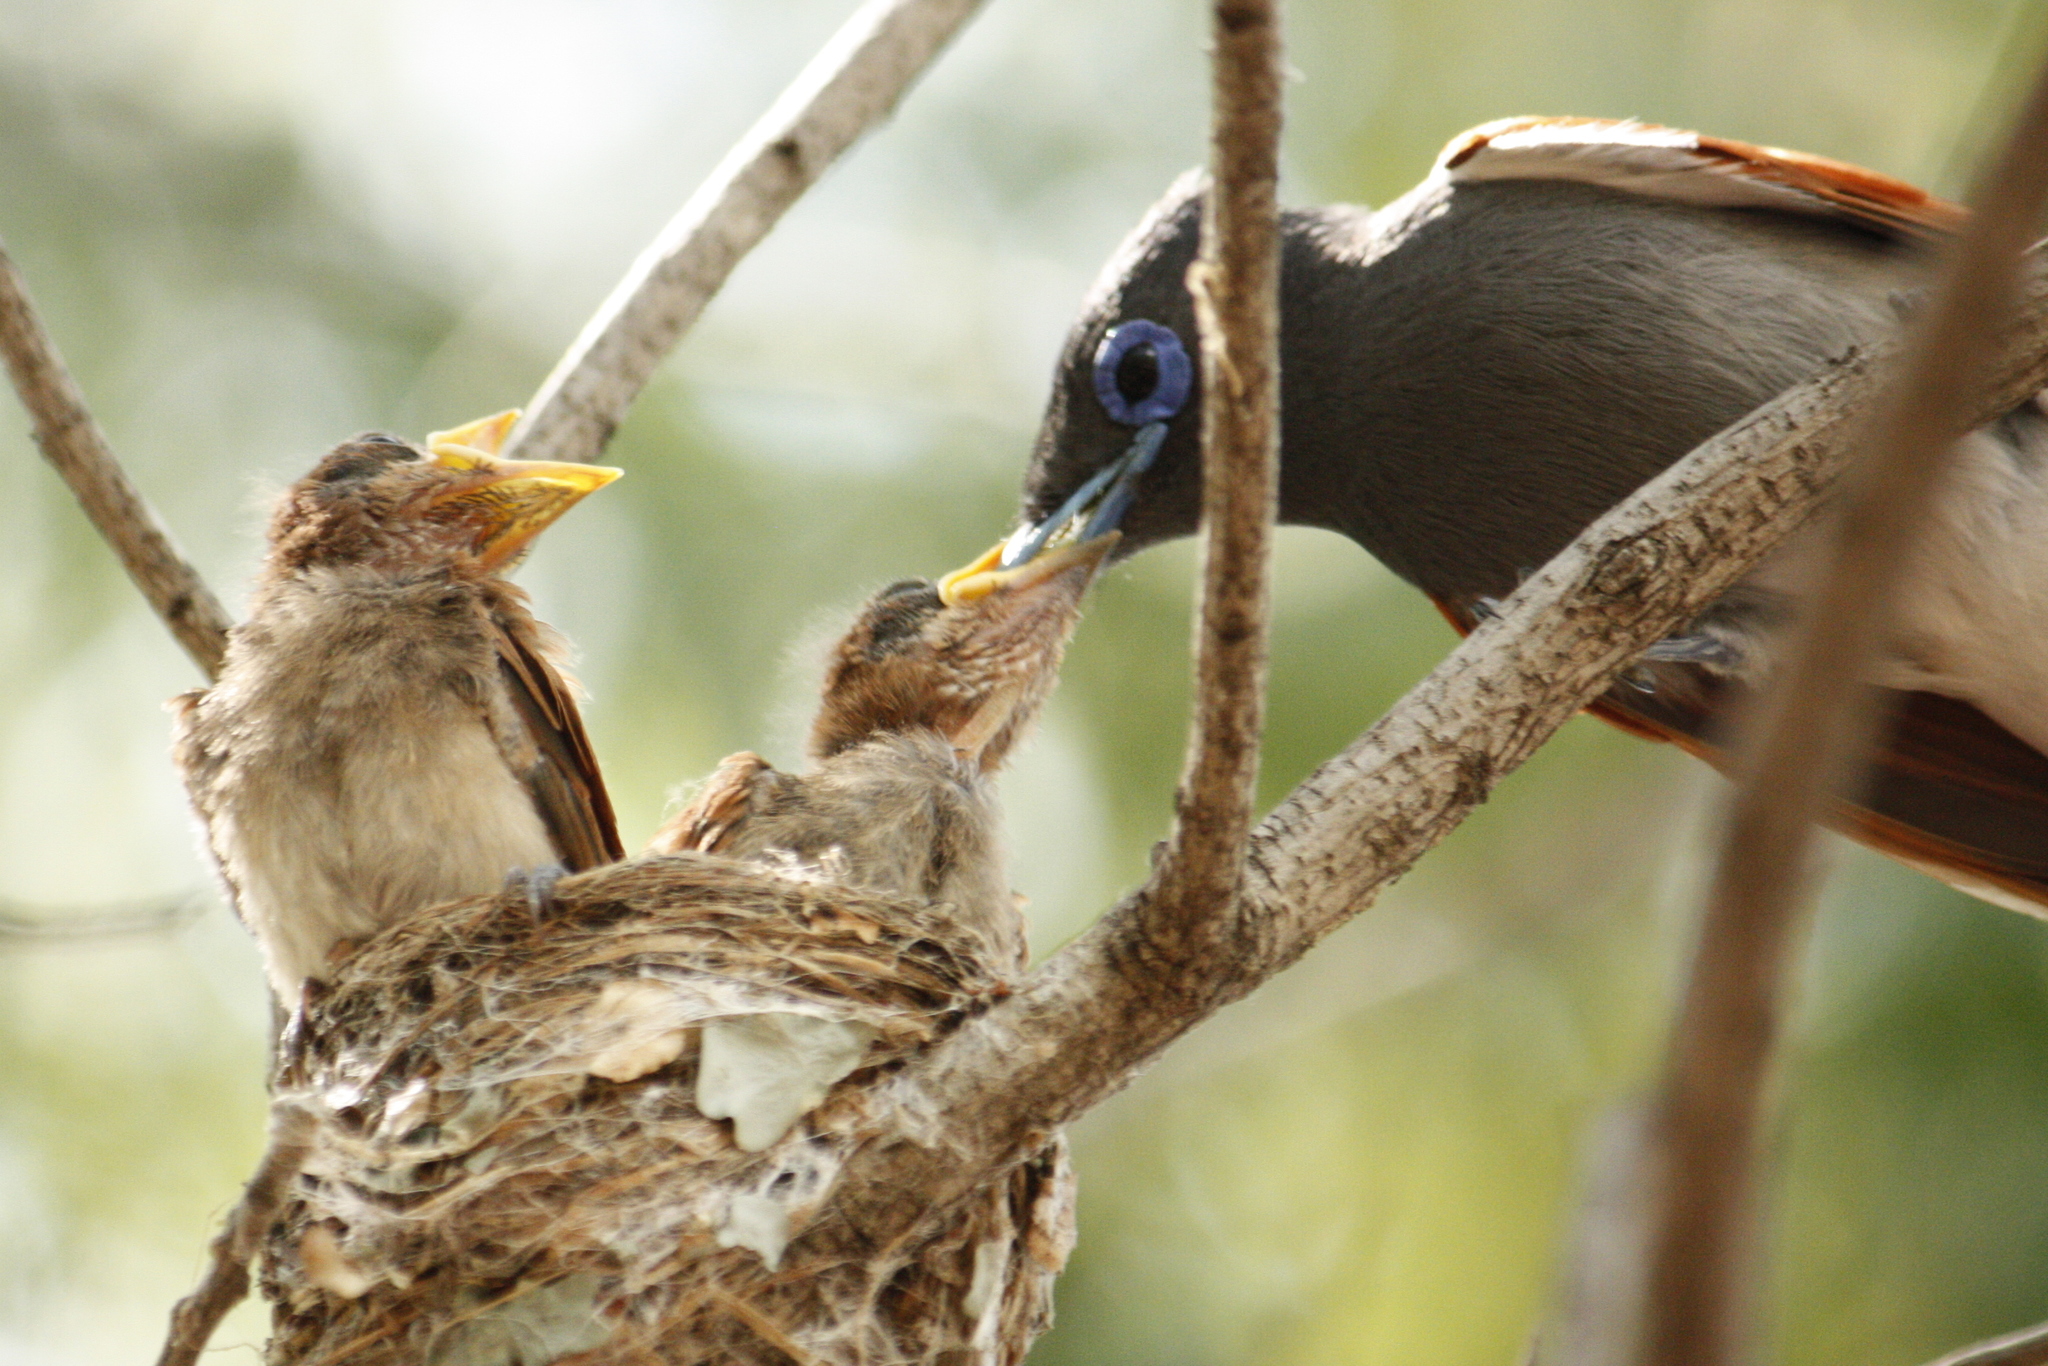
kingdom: Animalia
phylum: Chordata
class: Aves
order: Passeriformes
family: Monarchidae
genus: Terpsiphone
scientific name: Terpsiphone viridis
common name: African paradise flycatcher
